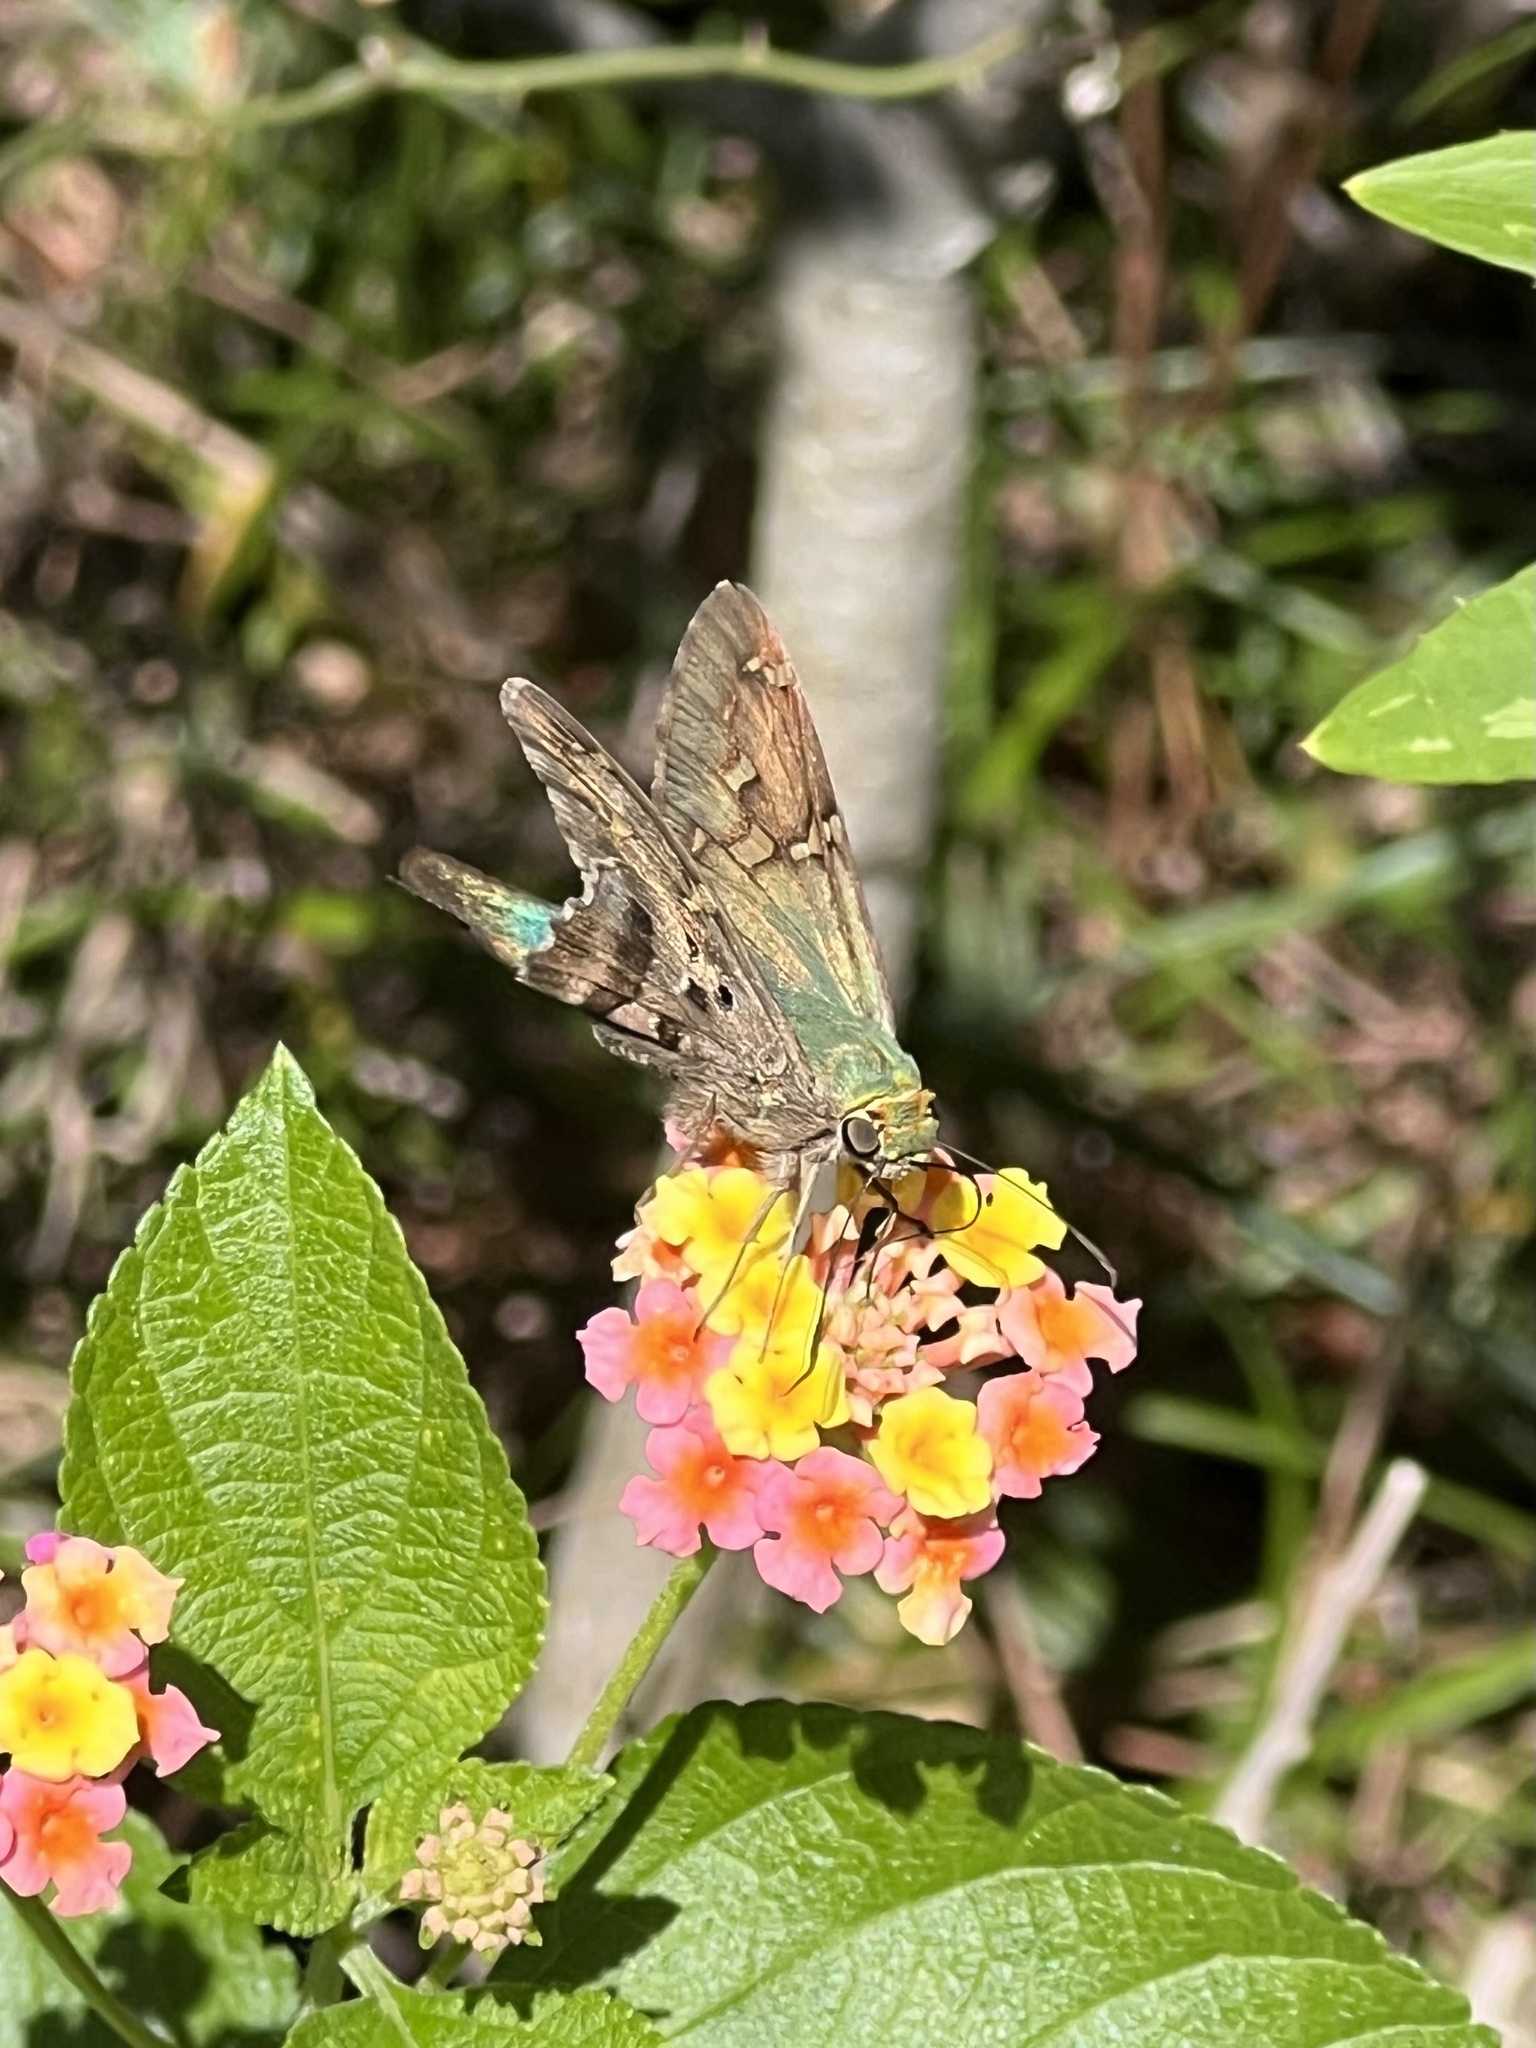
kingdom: Animalia
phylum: Arthropoda
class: Insecta
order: Lepidoptera
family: Hesperiidae
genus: Urbanus
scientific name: Urbanus proteus
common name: Long-tailed skipper
